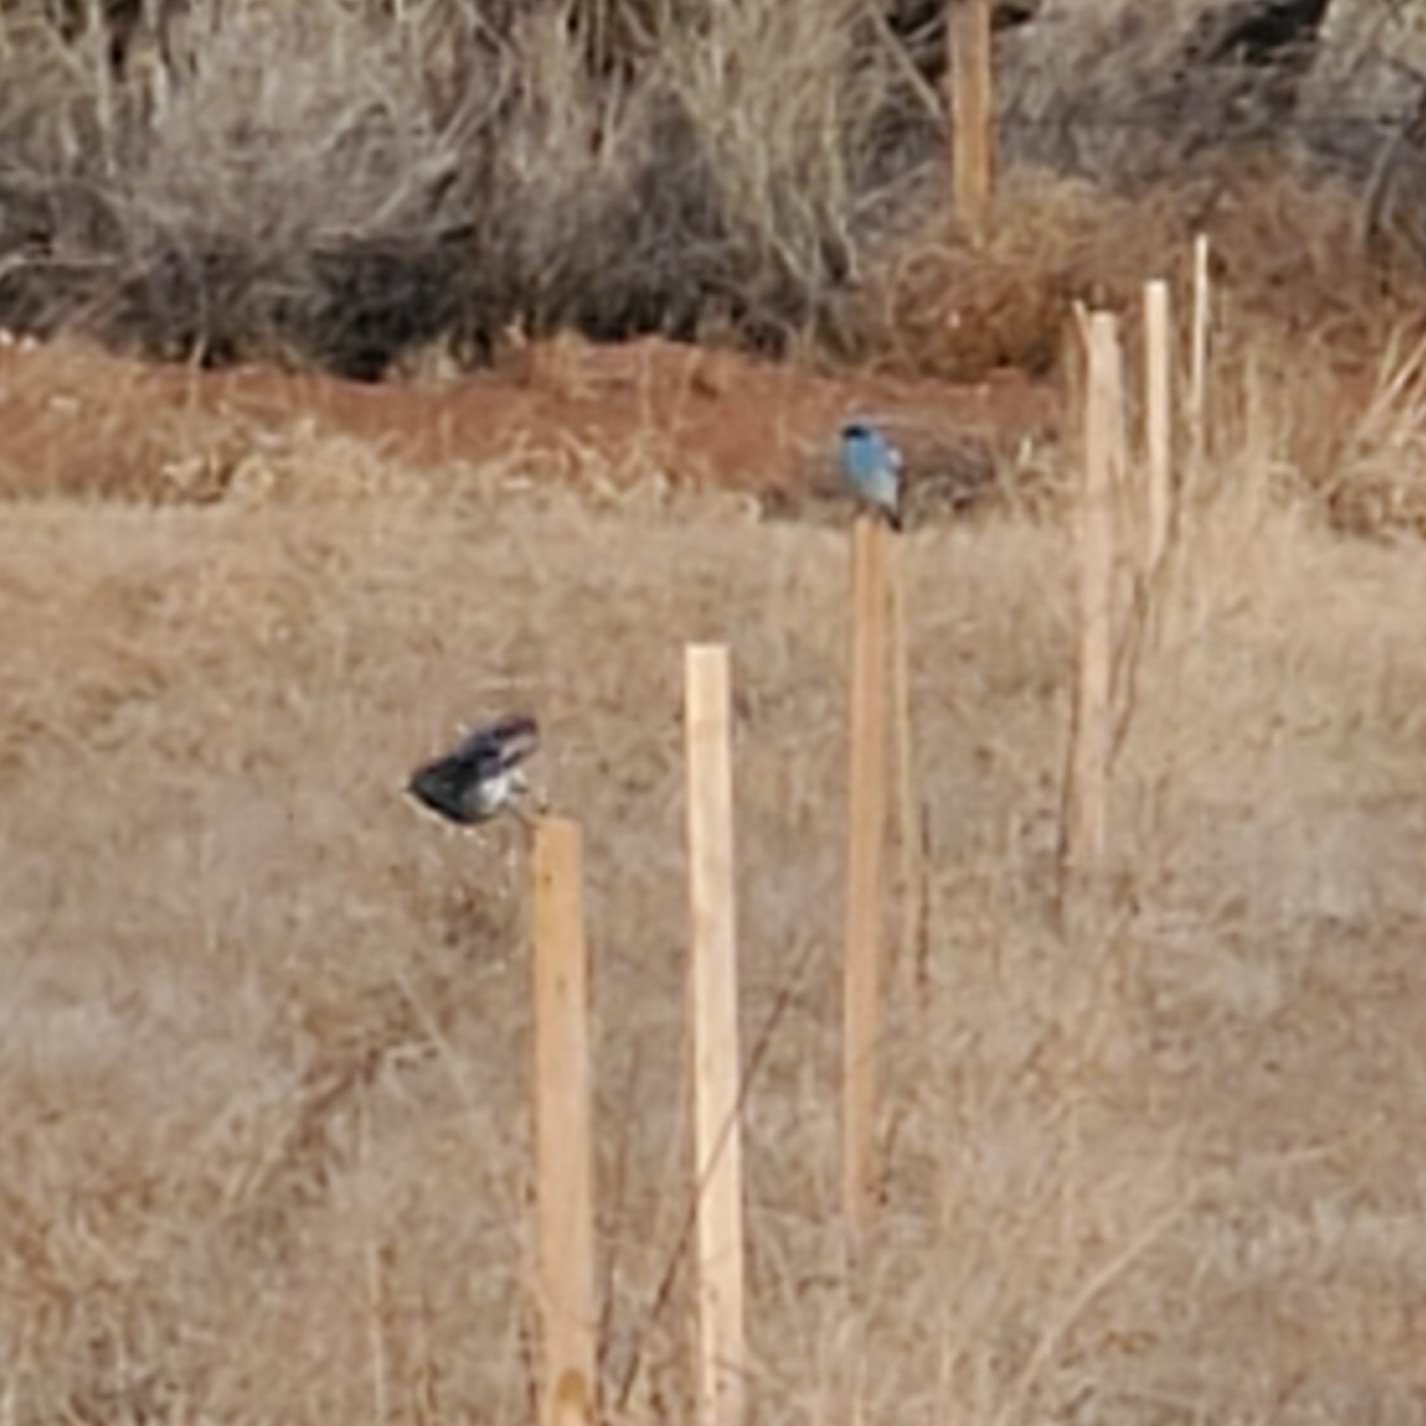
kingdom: Animalia
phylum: Chordata
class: Aves
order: Passeriformes
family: Turdidae
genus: Sialia
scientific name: Sialia currucoides
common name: Mountain bluebird
